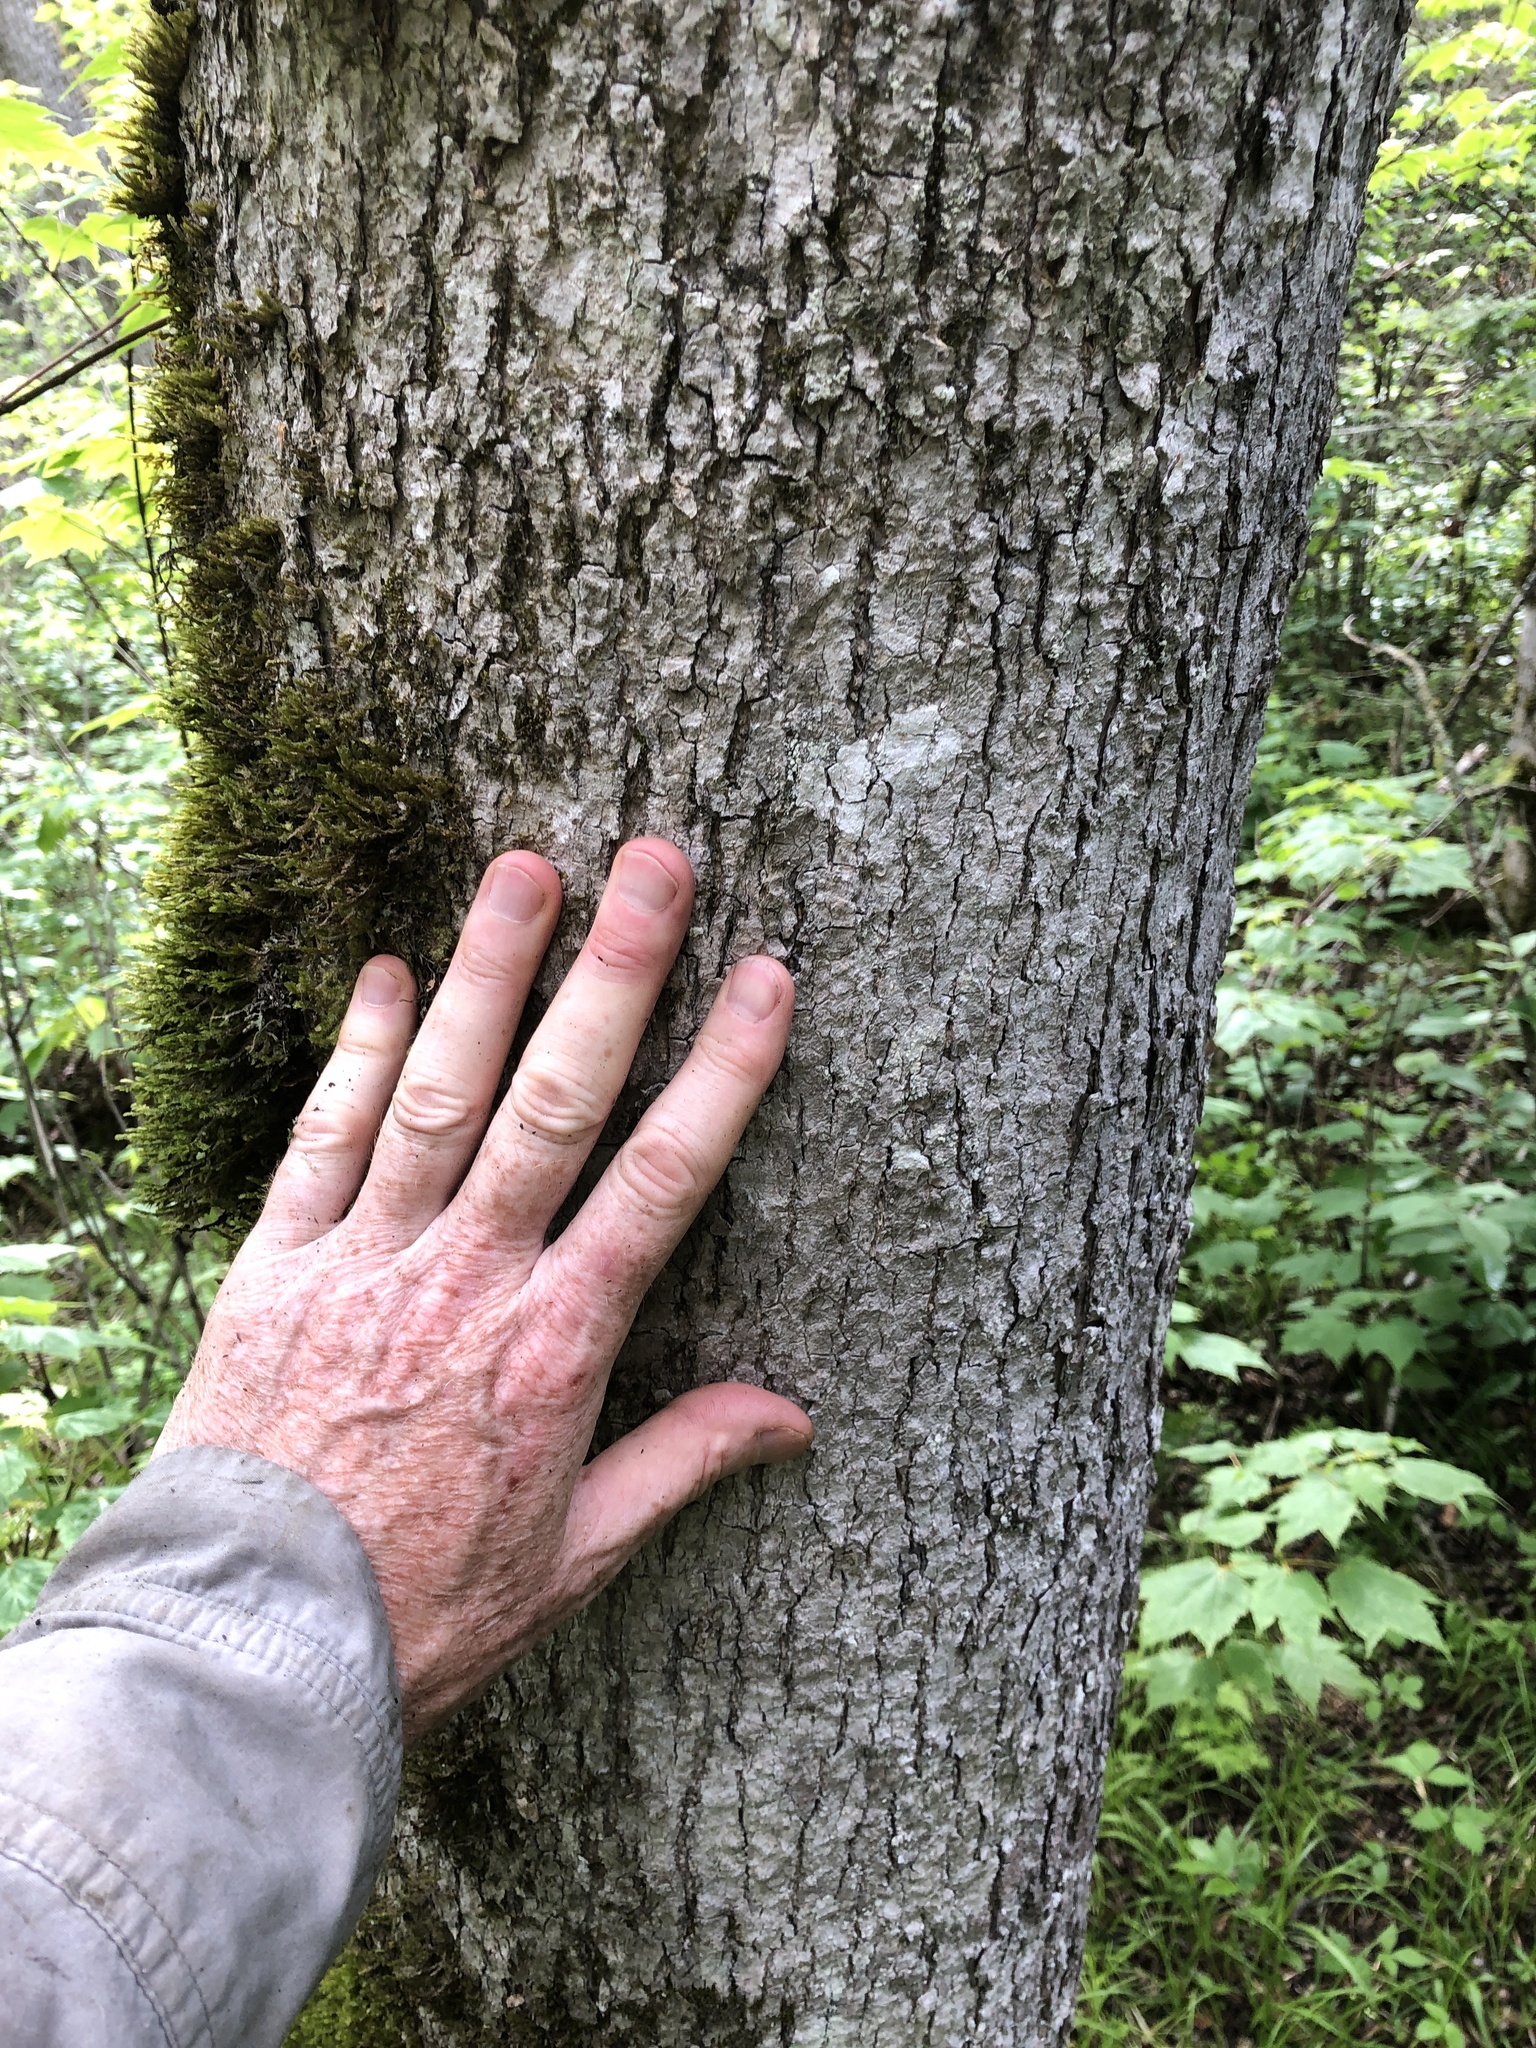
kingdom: Plantae
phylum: Tracheophyta
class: Magnoliopsida
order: Lamiales
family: Oleaceae
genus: Fraxinus
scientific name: Fraxinus nigra
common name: Black ash
